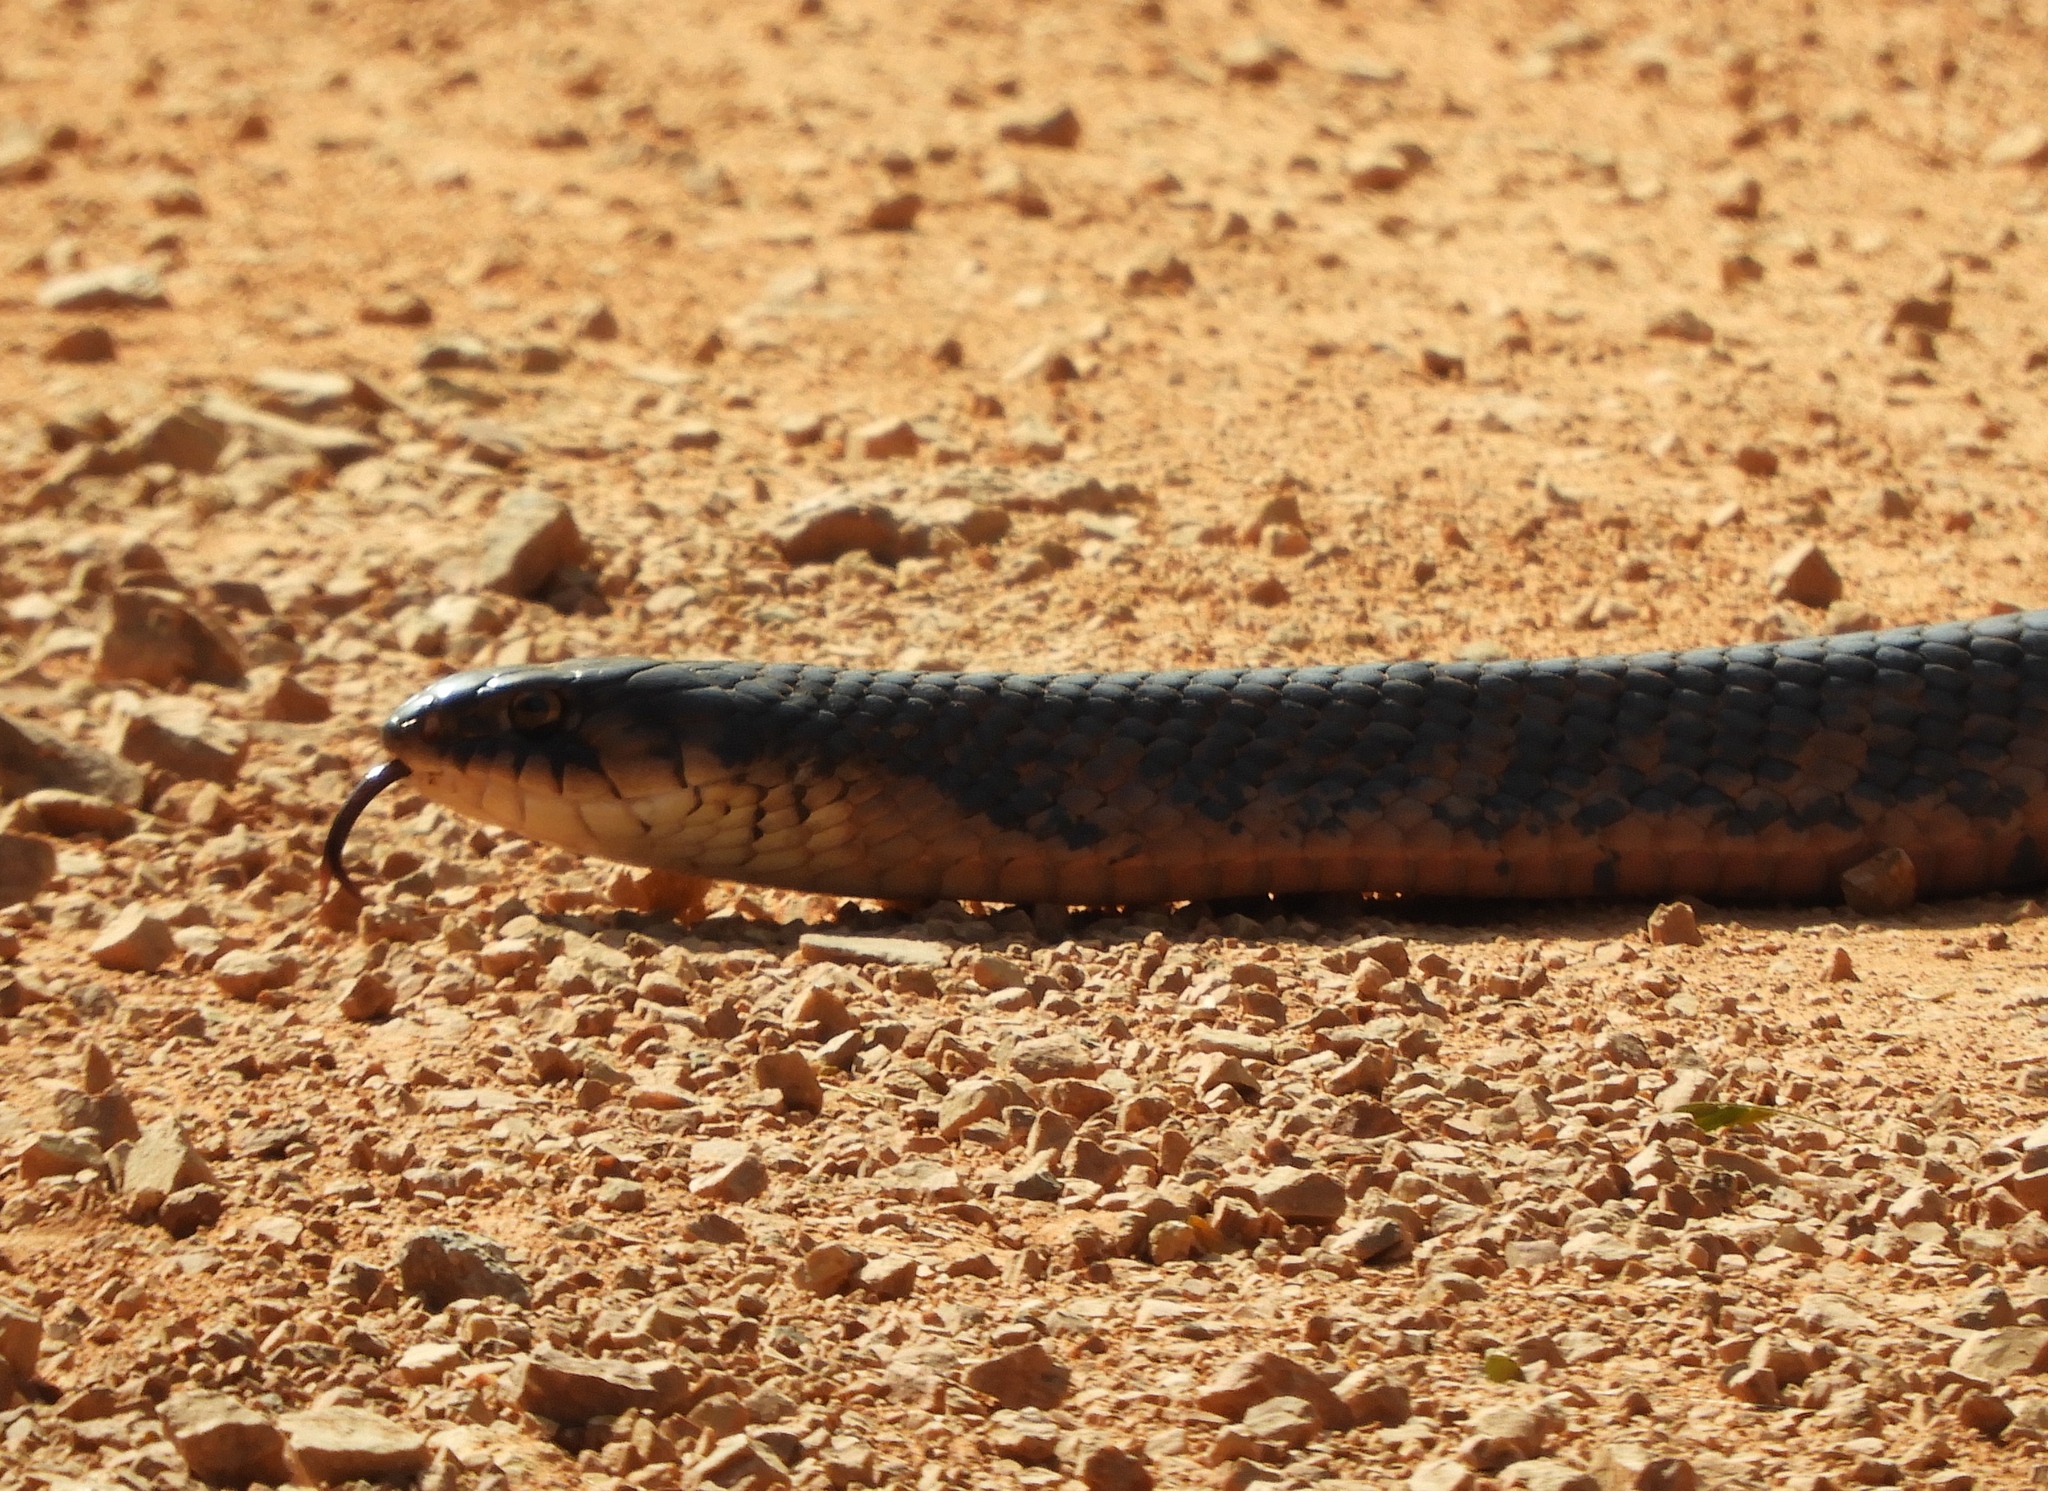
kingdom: Animalia
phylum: Chordata
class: Squamata
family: Colubridae
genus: Drymarchon
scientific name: Drymarchon melanurus
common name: Central american indigo snake
